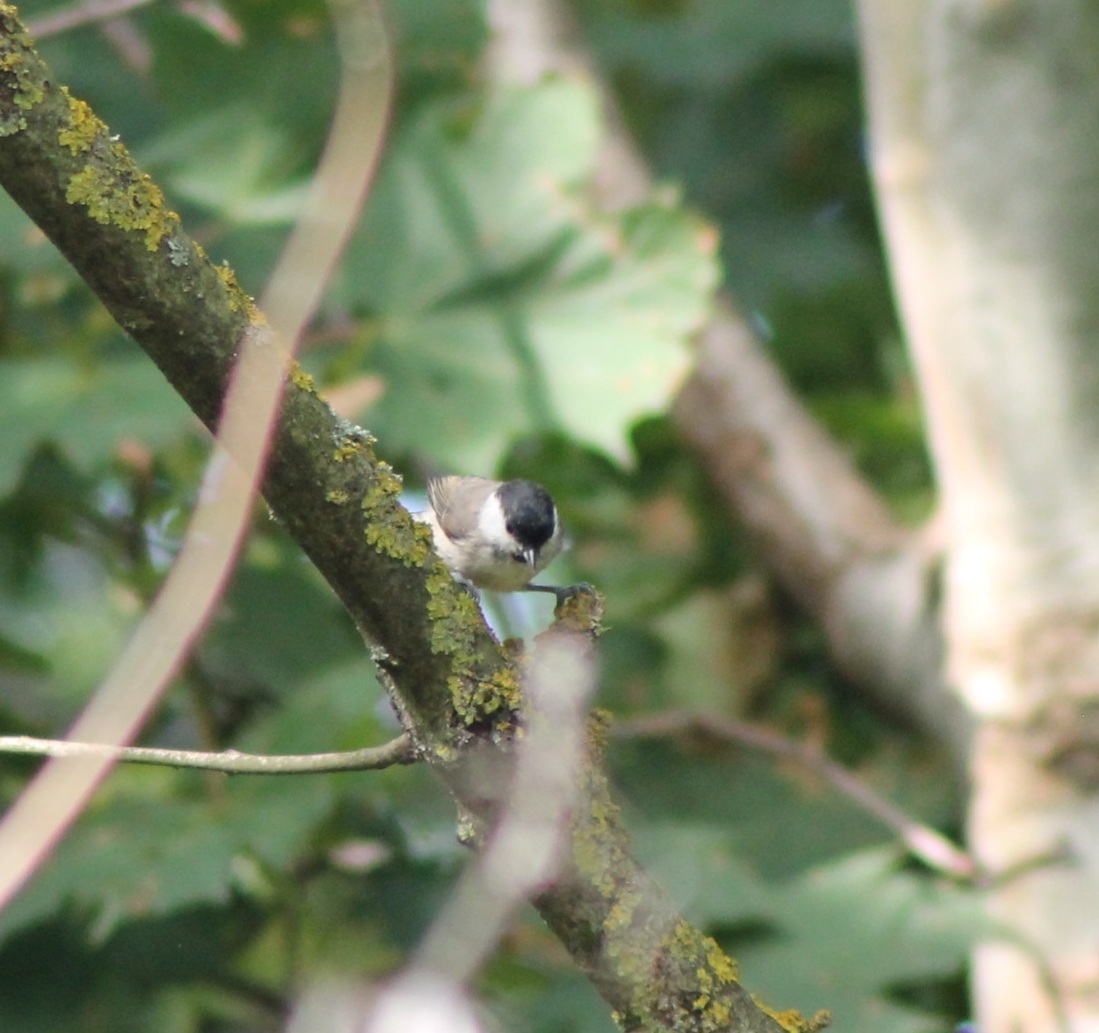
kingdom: Animalia
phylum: Chordata
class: Aves
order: Passeriformes
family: Paridae
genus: Poecile
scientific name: Poecile palustris
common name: Marsh tit
